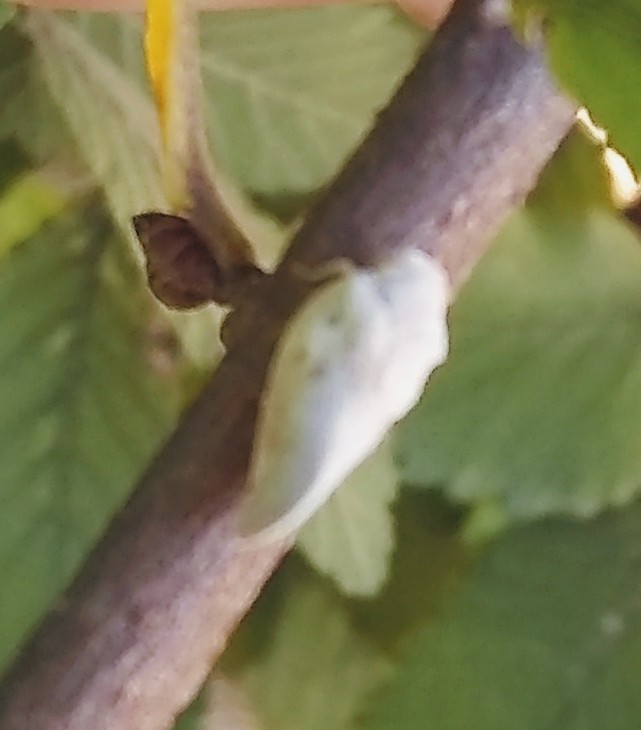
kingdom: Animalia
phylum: Arthropoda
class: Insecta
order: Hemiptera
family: Flatidae
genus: Metcalfa
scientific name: Metcalfa pruinosa
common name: Citrus flatid planthopper
